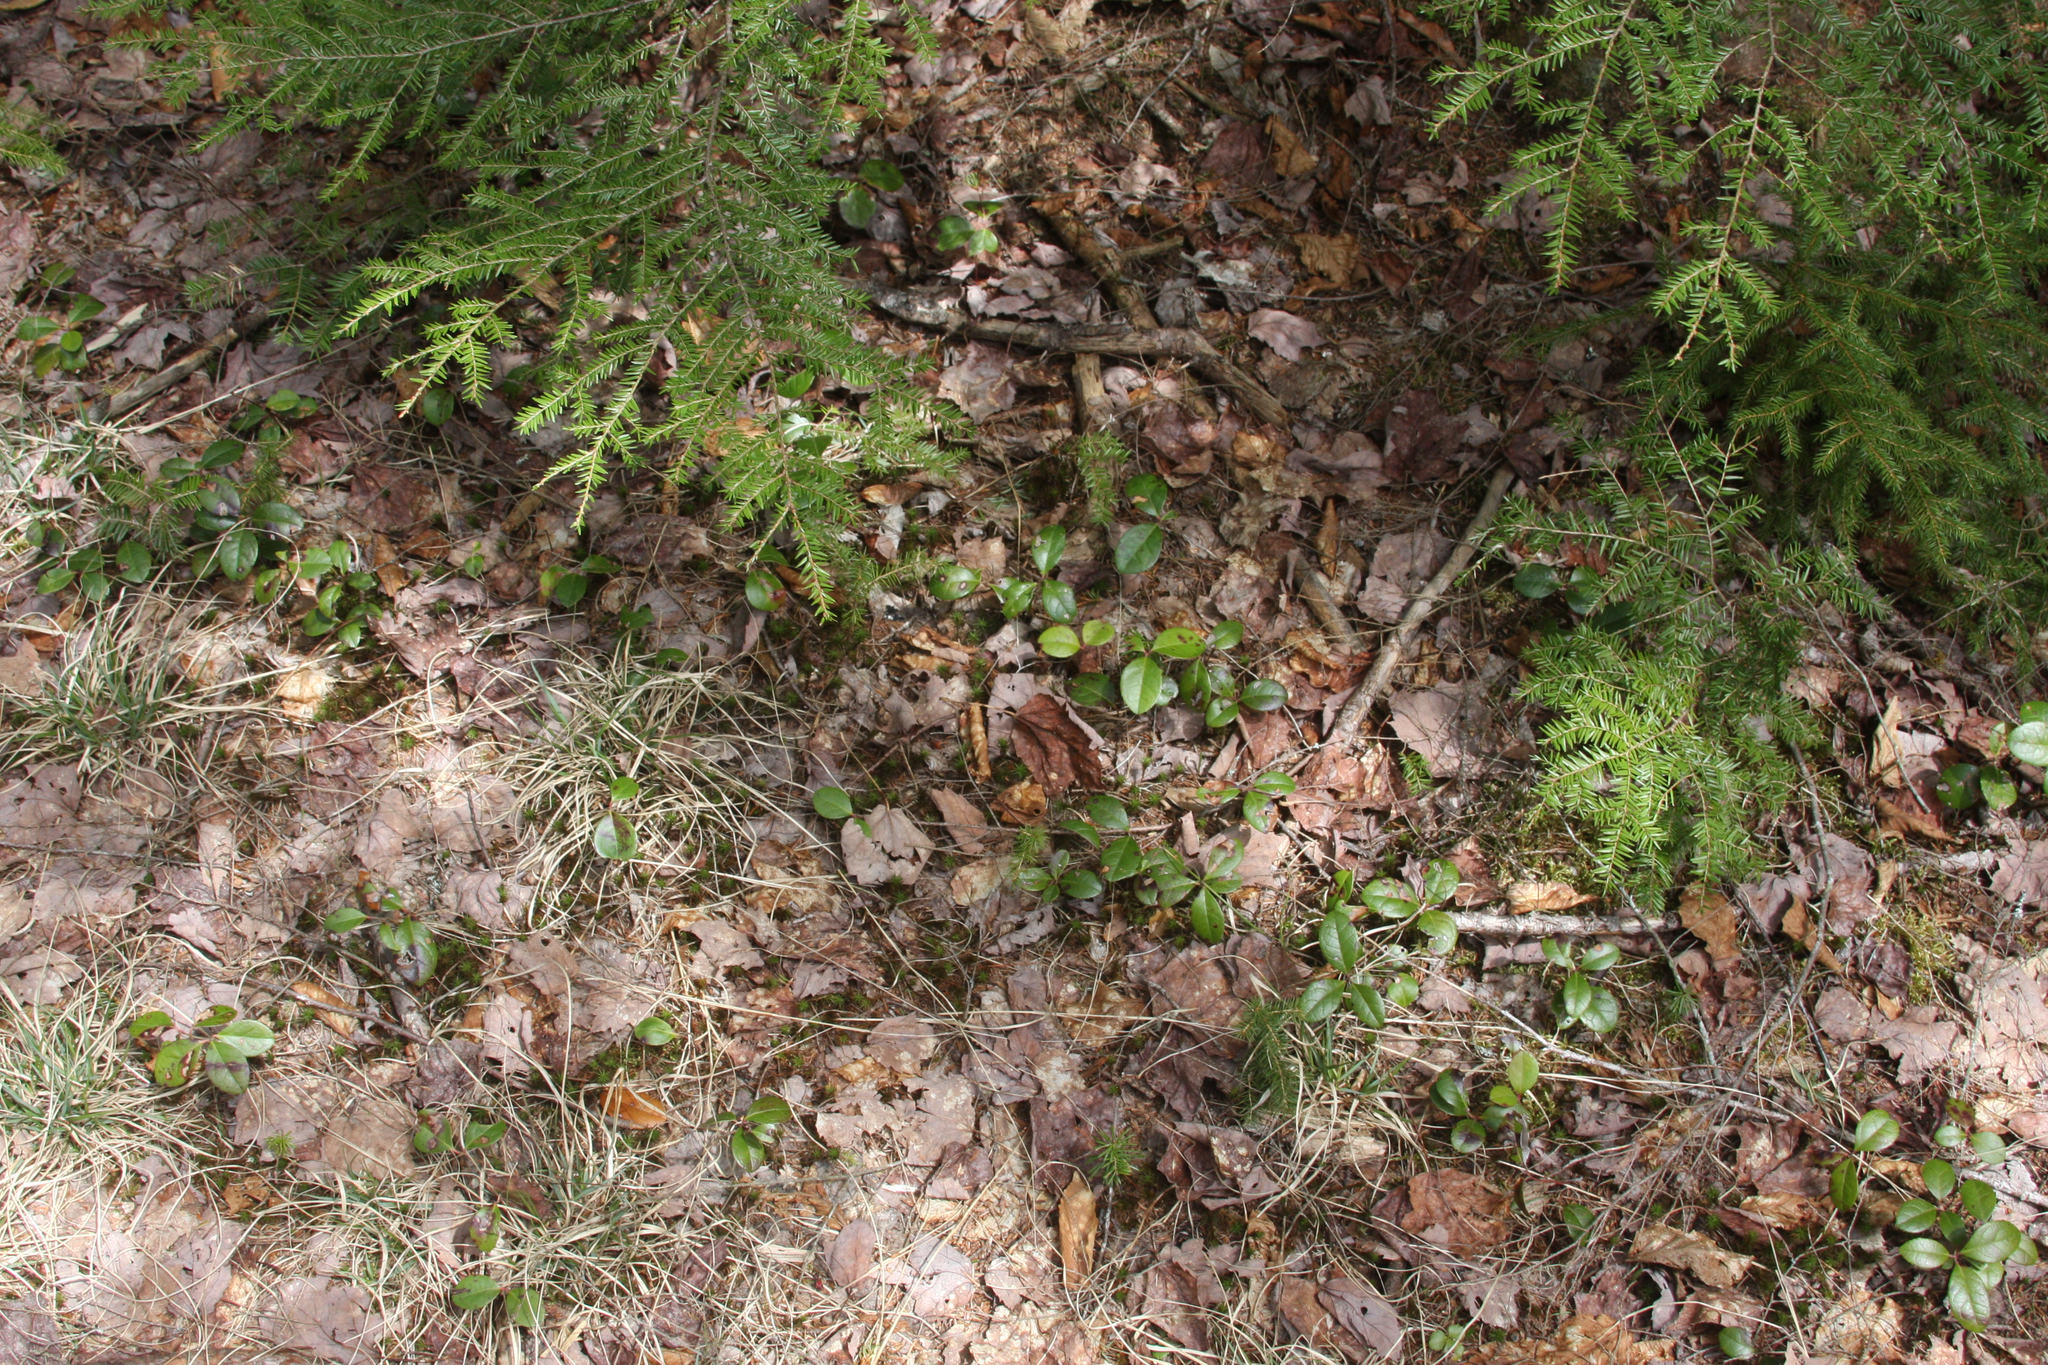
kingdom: Plantae
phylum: Tracheophyta
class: Magnoliopsida
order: Ericales
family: Ericaceae
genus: Gaultheria
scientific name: Gaultheria procumbens
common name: Checkerberry
